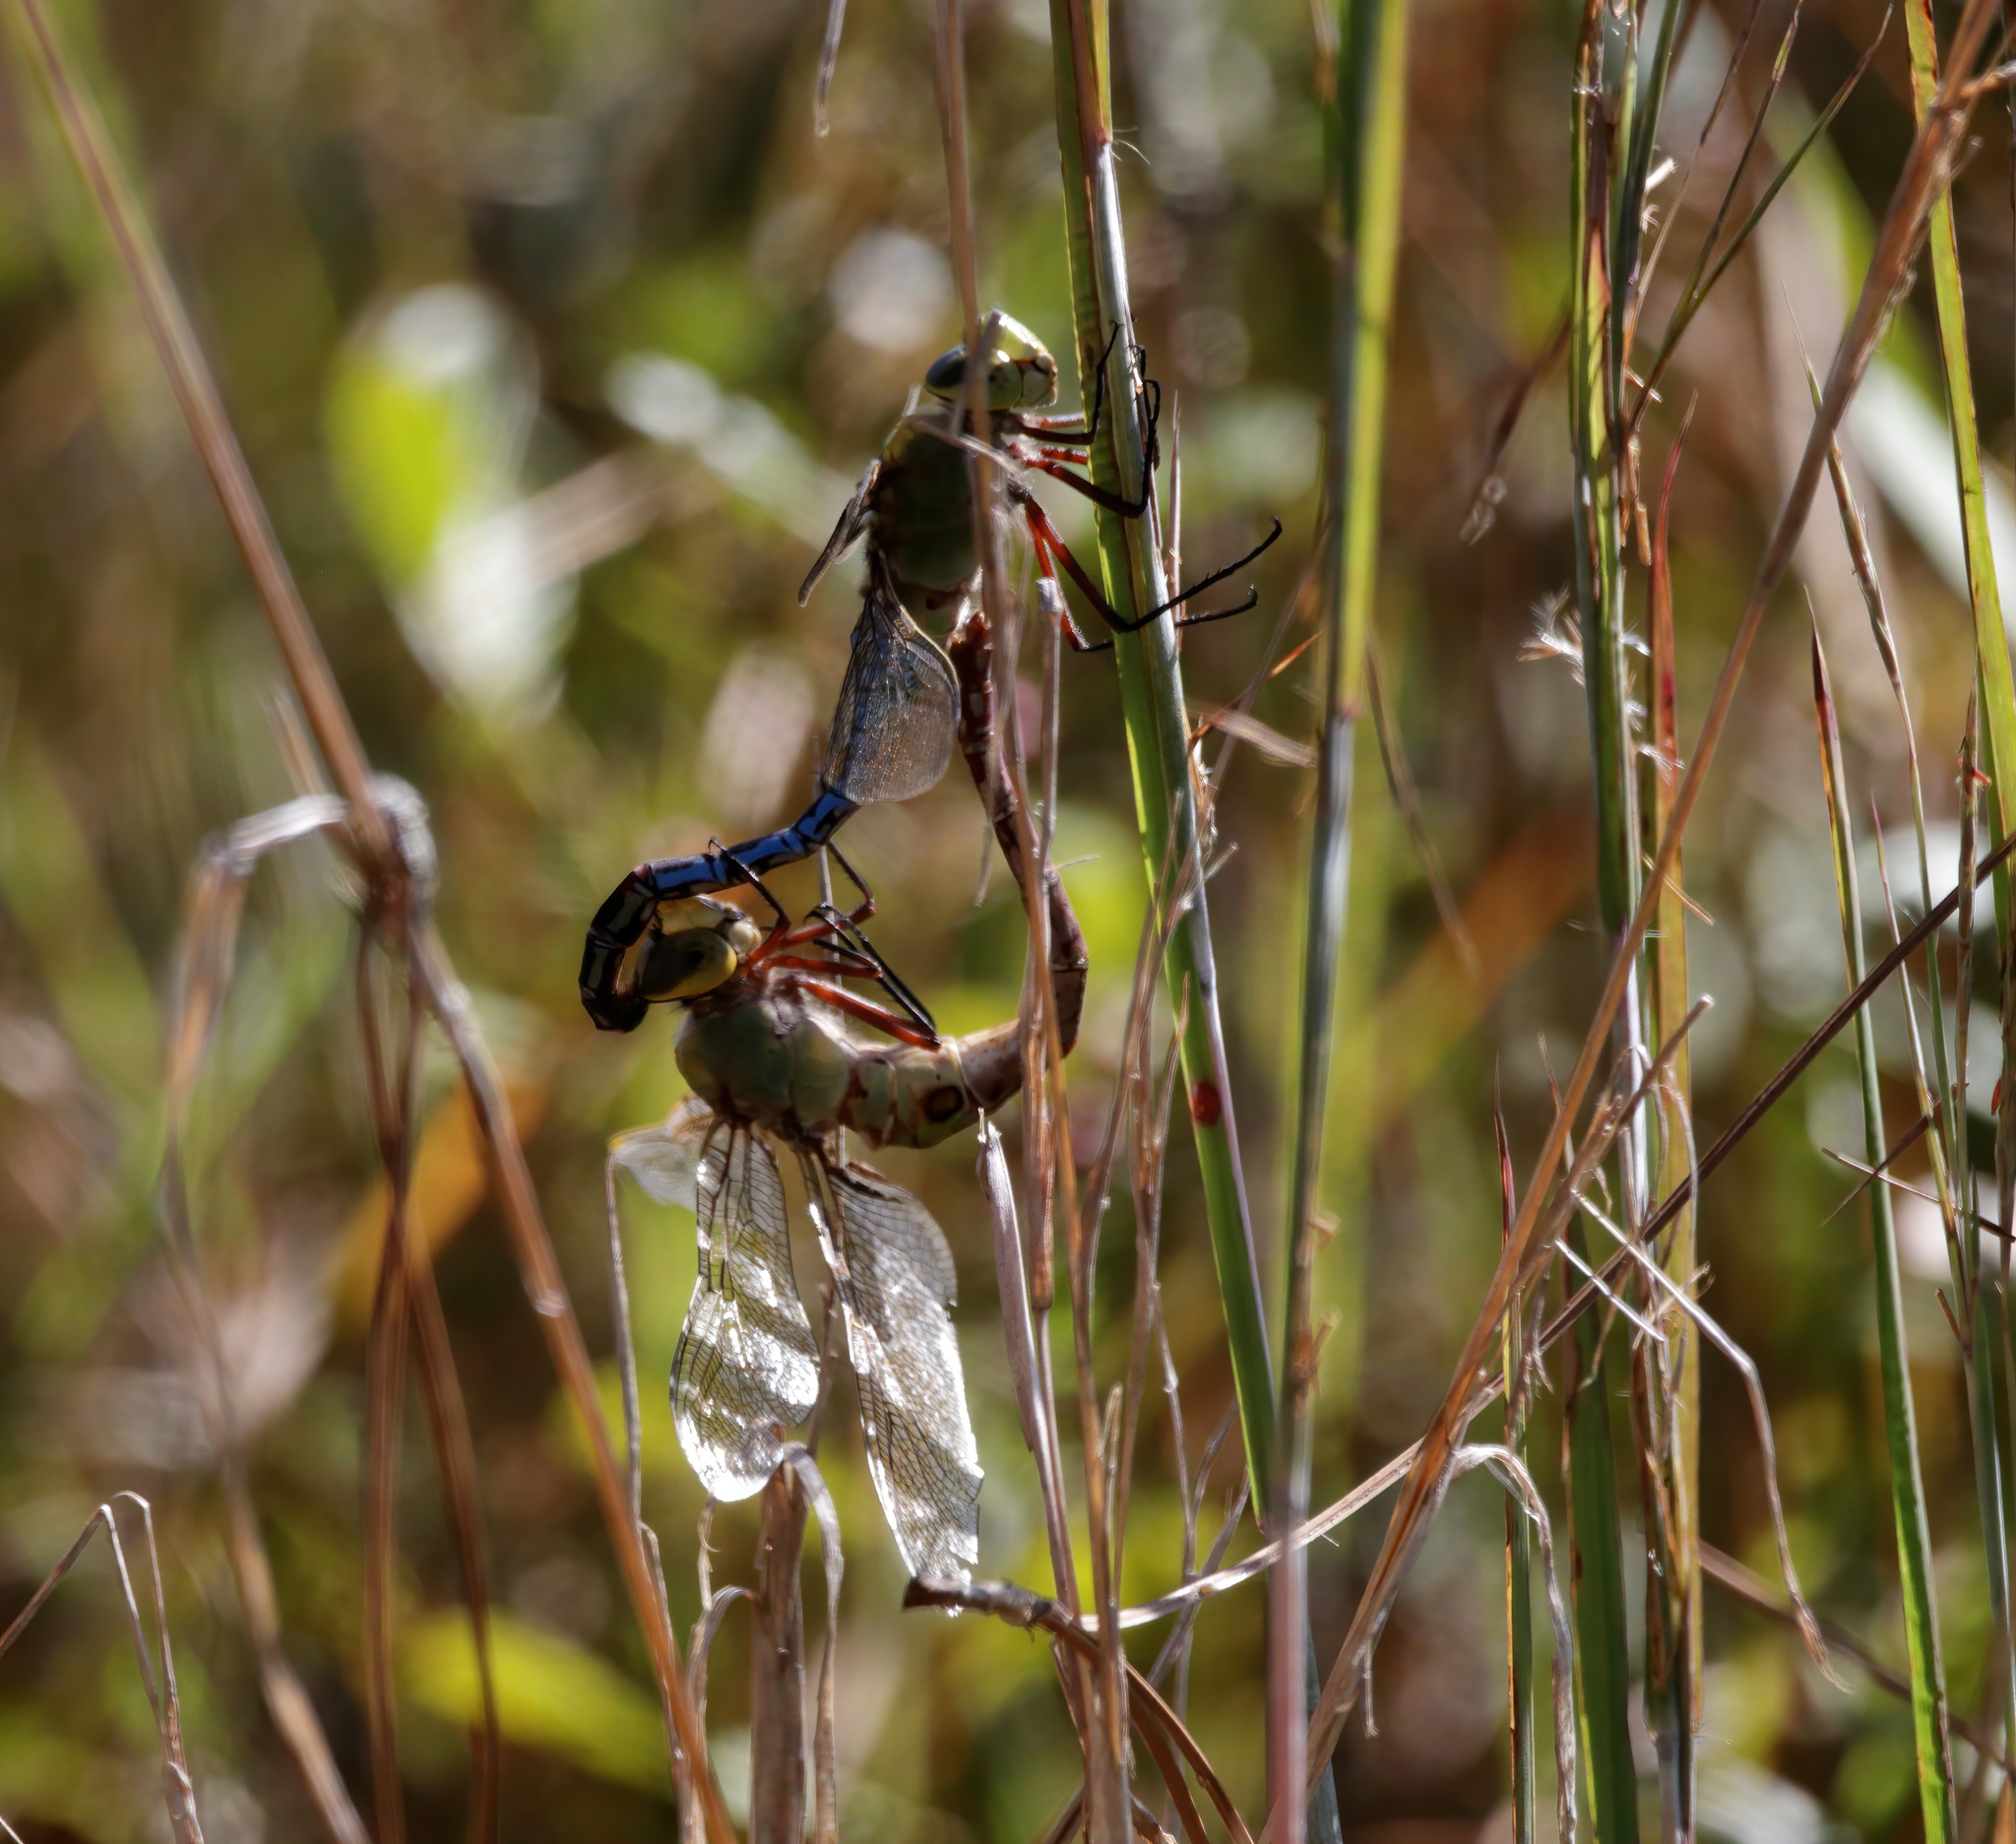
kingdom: Animalia
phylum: Arthropoda
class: Insecta
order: Odonata
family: Aeshnidae
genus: Anax
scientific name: Anax junius
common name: Common green darner
